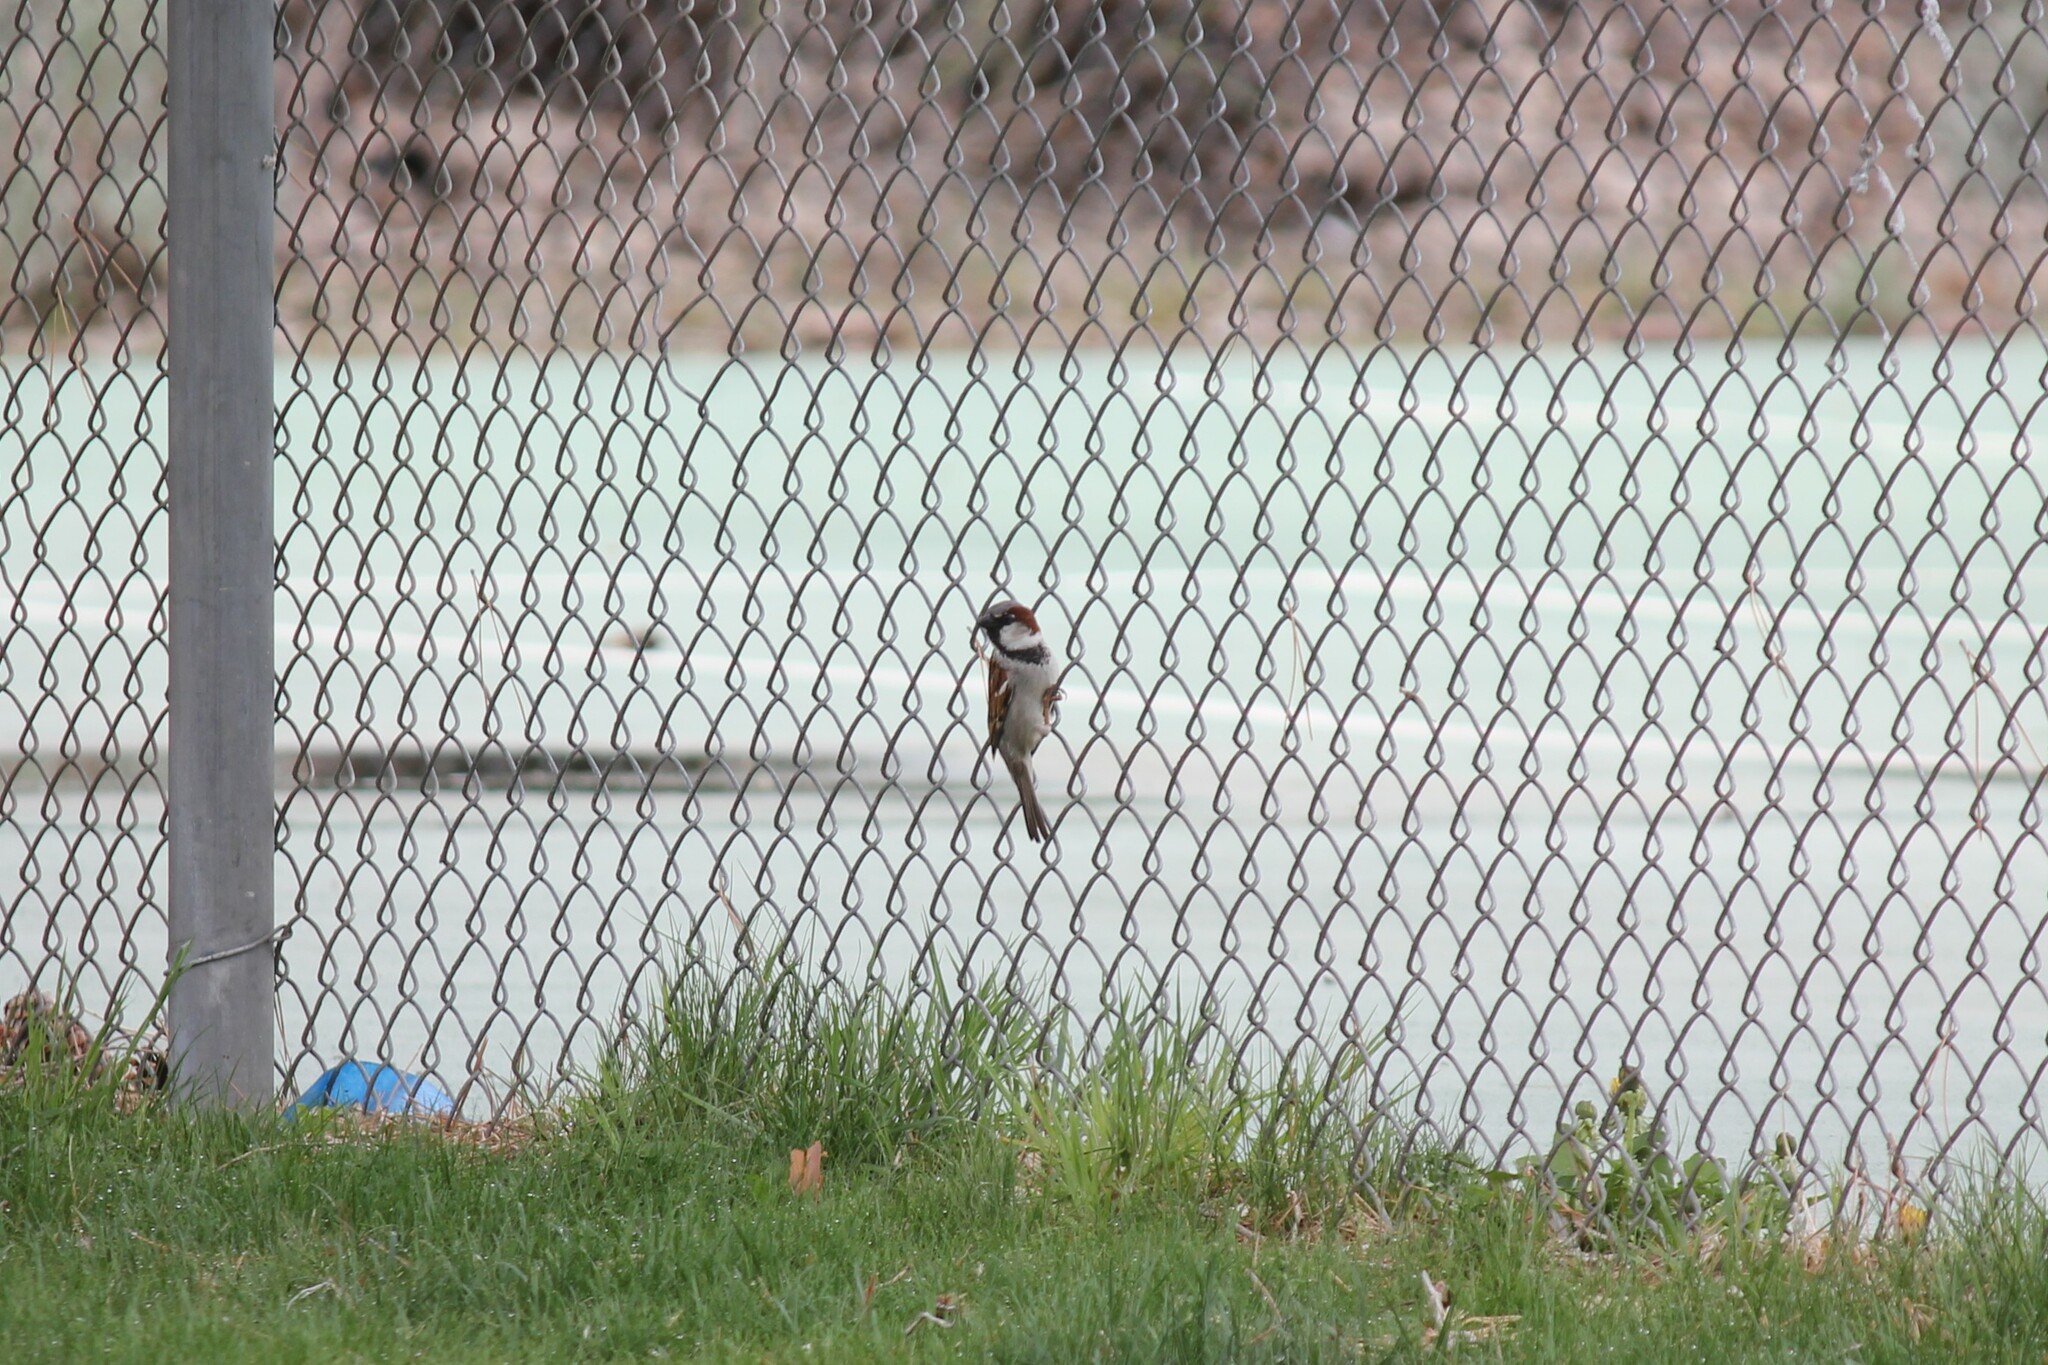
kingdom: Animalia
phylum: Chordata
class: Aves
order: Passeriformes
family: Passeridae
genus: Passer
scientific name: Passer domesticus
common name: House sparrow
